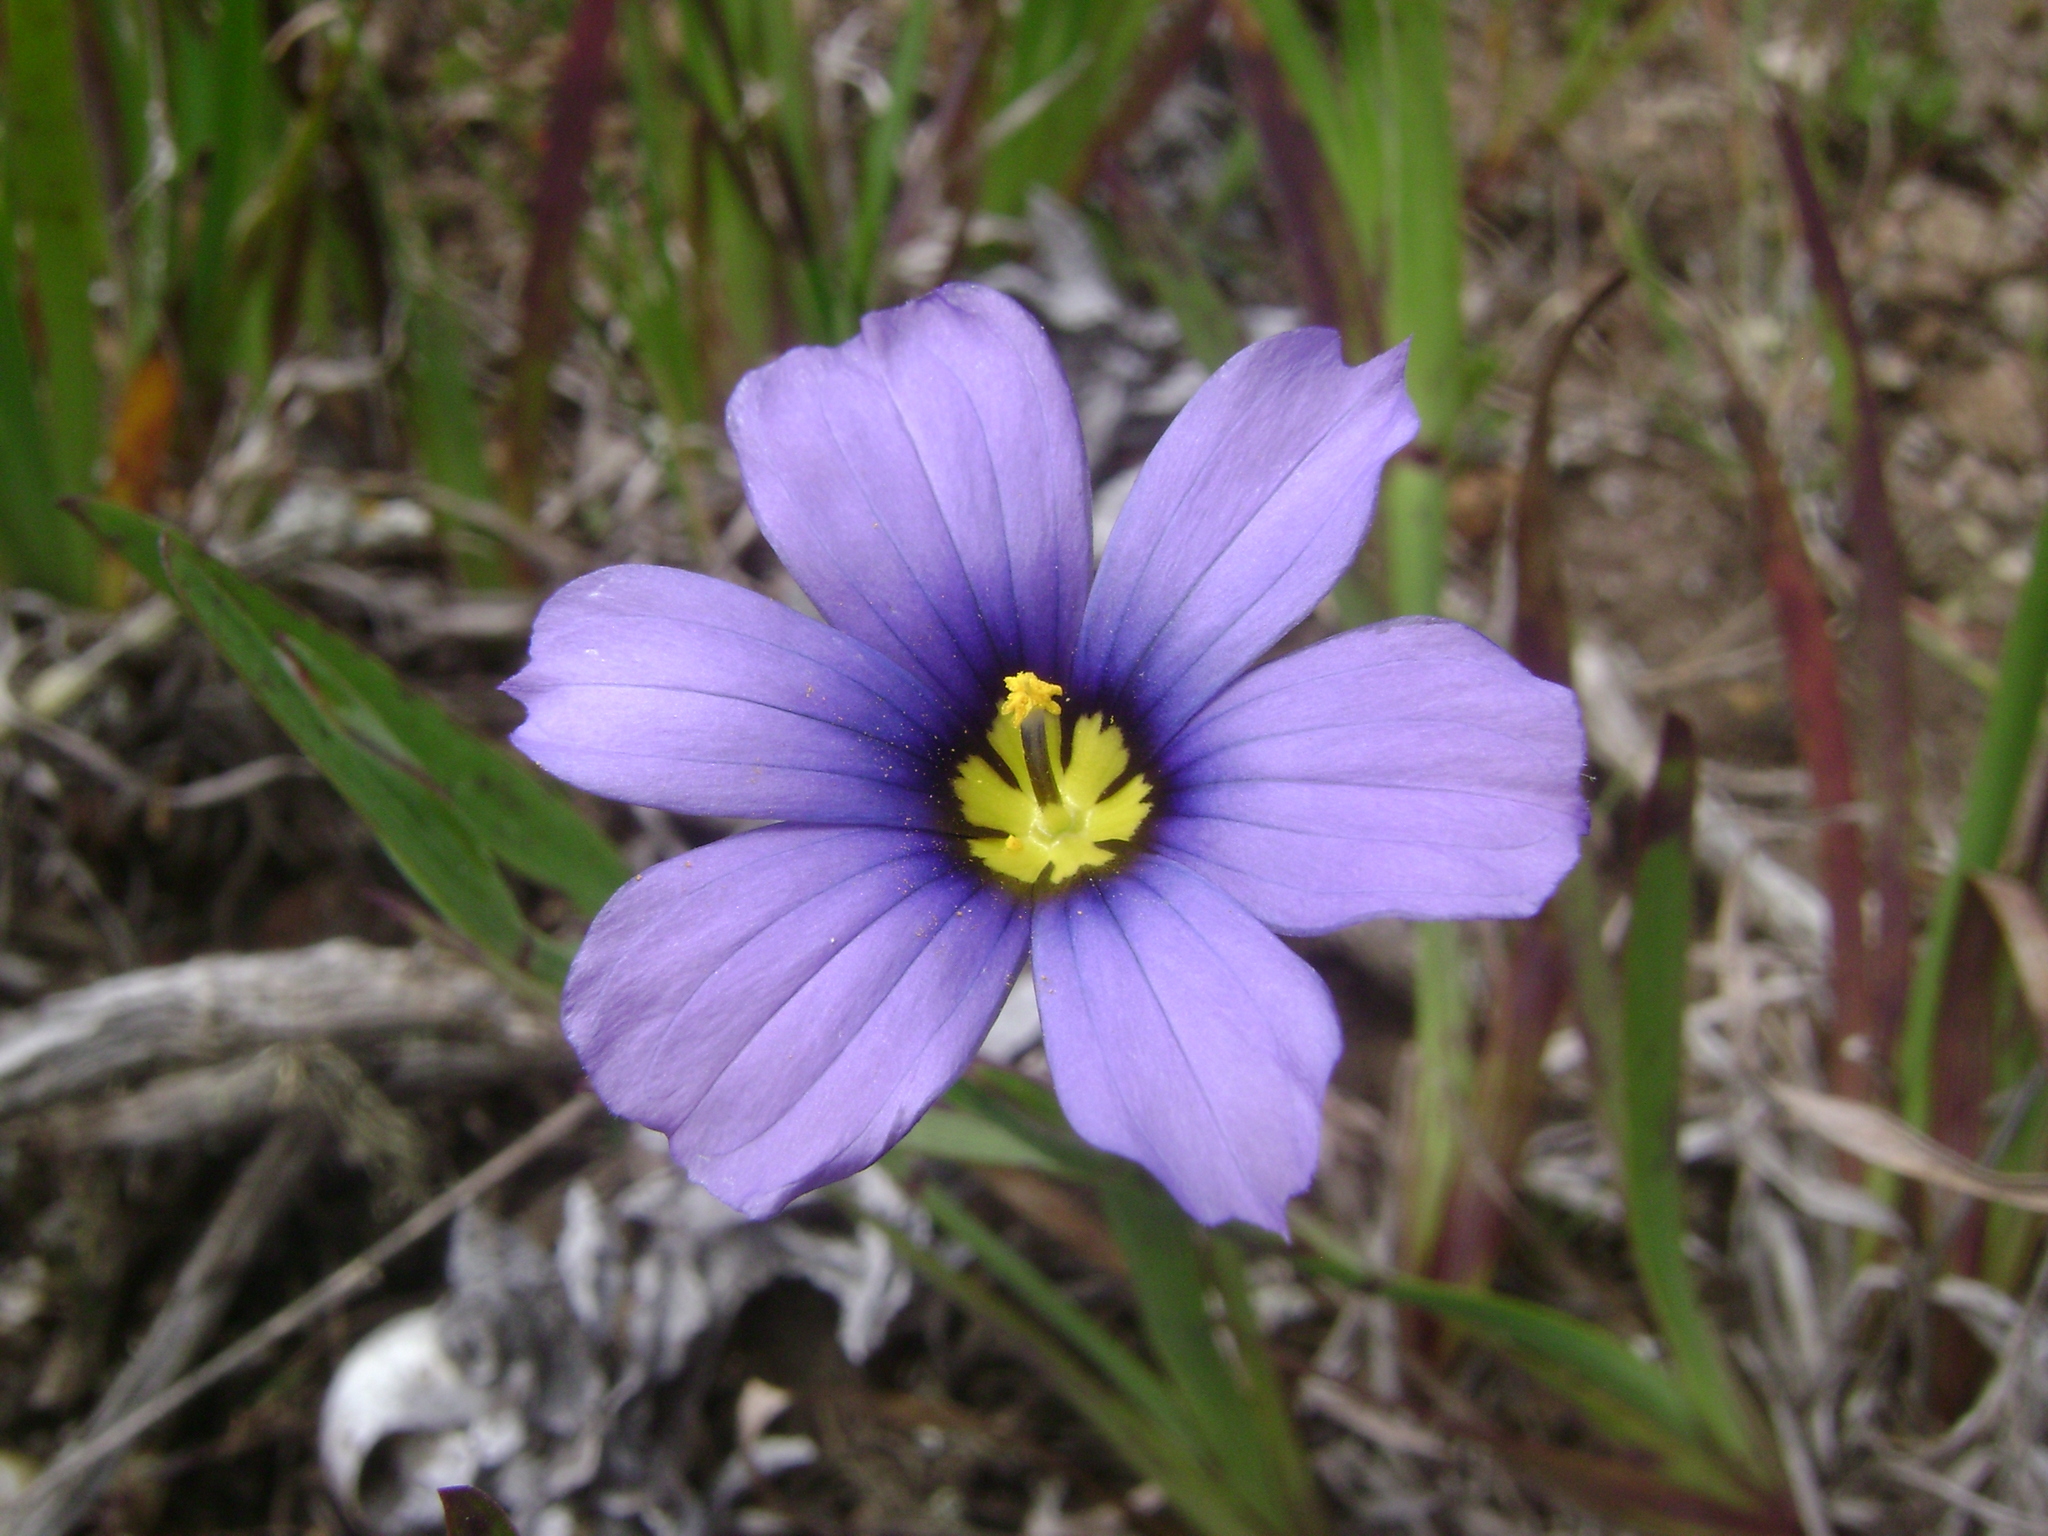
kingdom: Plantae
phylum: Tracheophyta
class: Liliopsida
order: Asparagales
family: Iridaceae
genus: Sisyrinchium
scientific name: Sisyrinchium bellum
